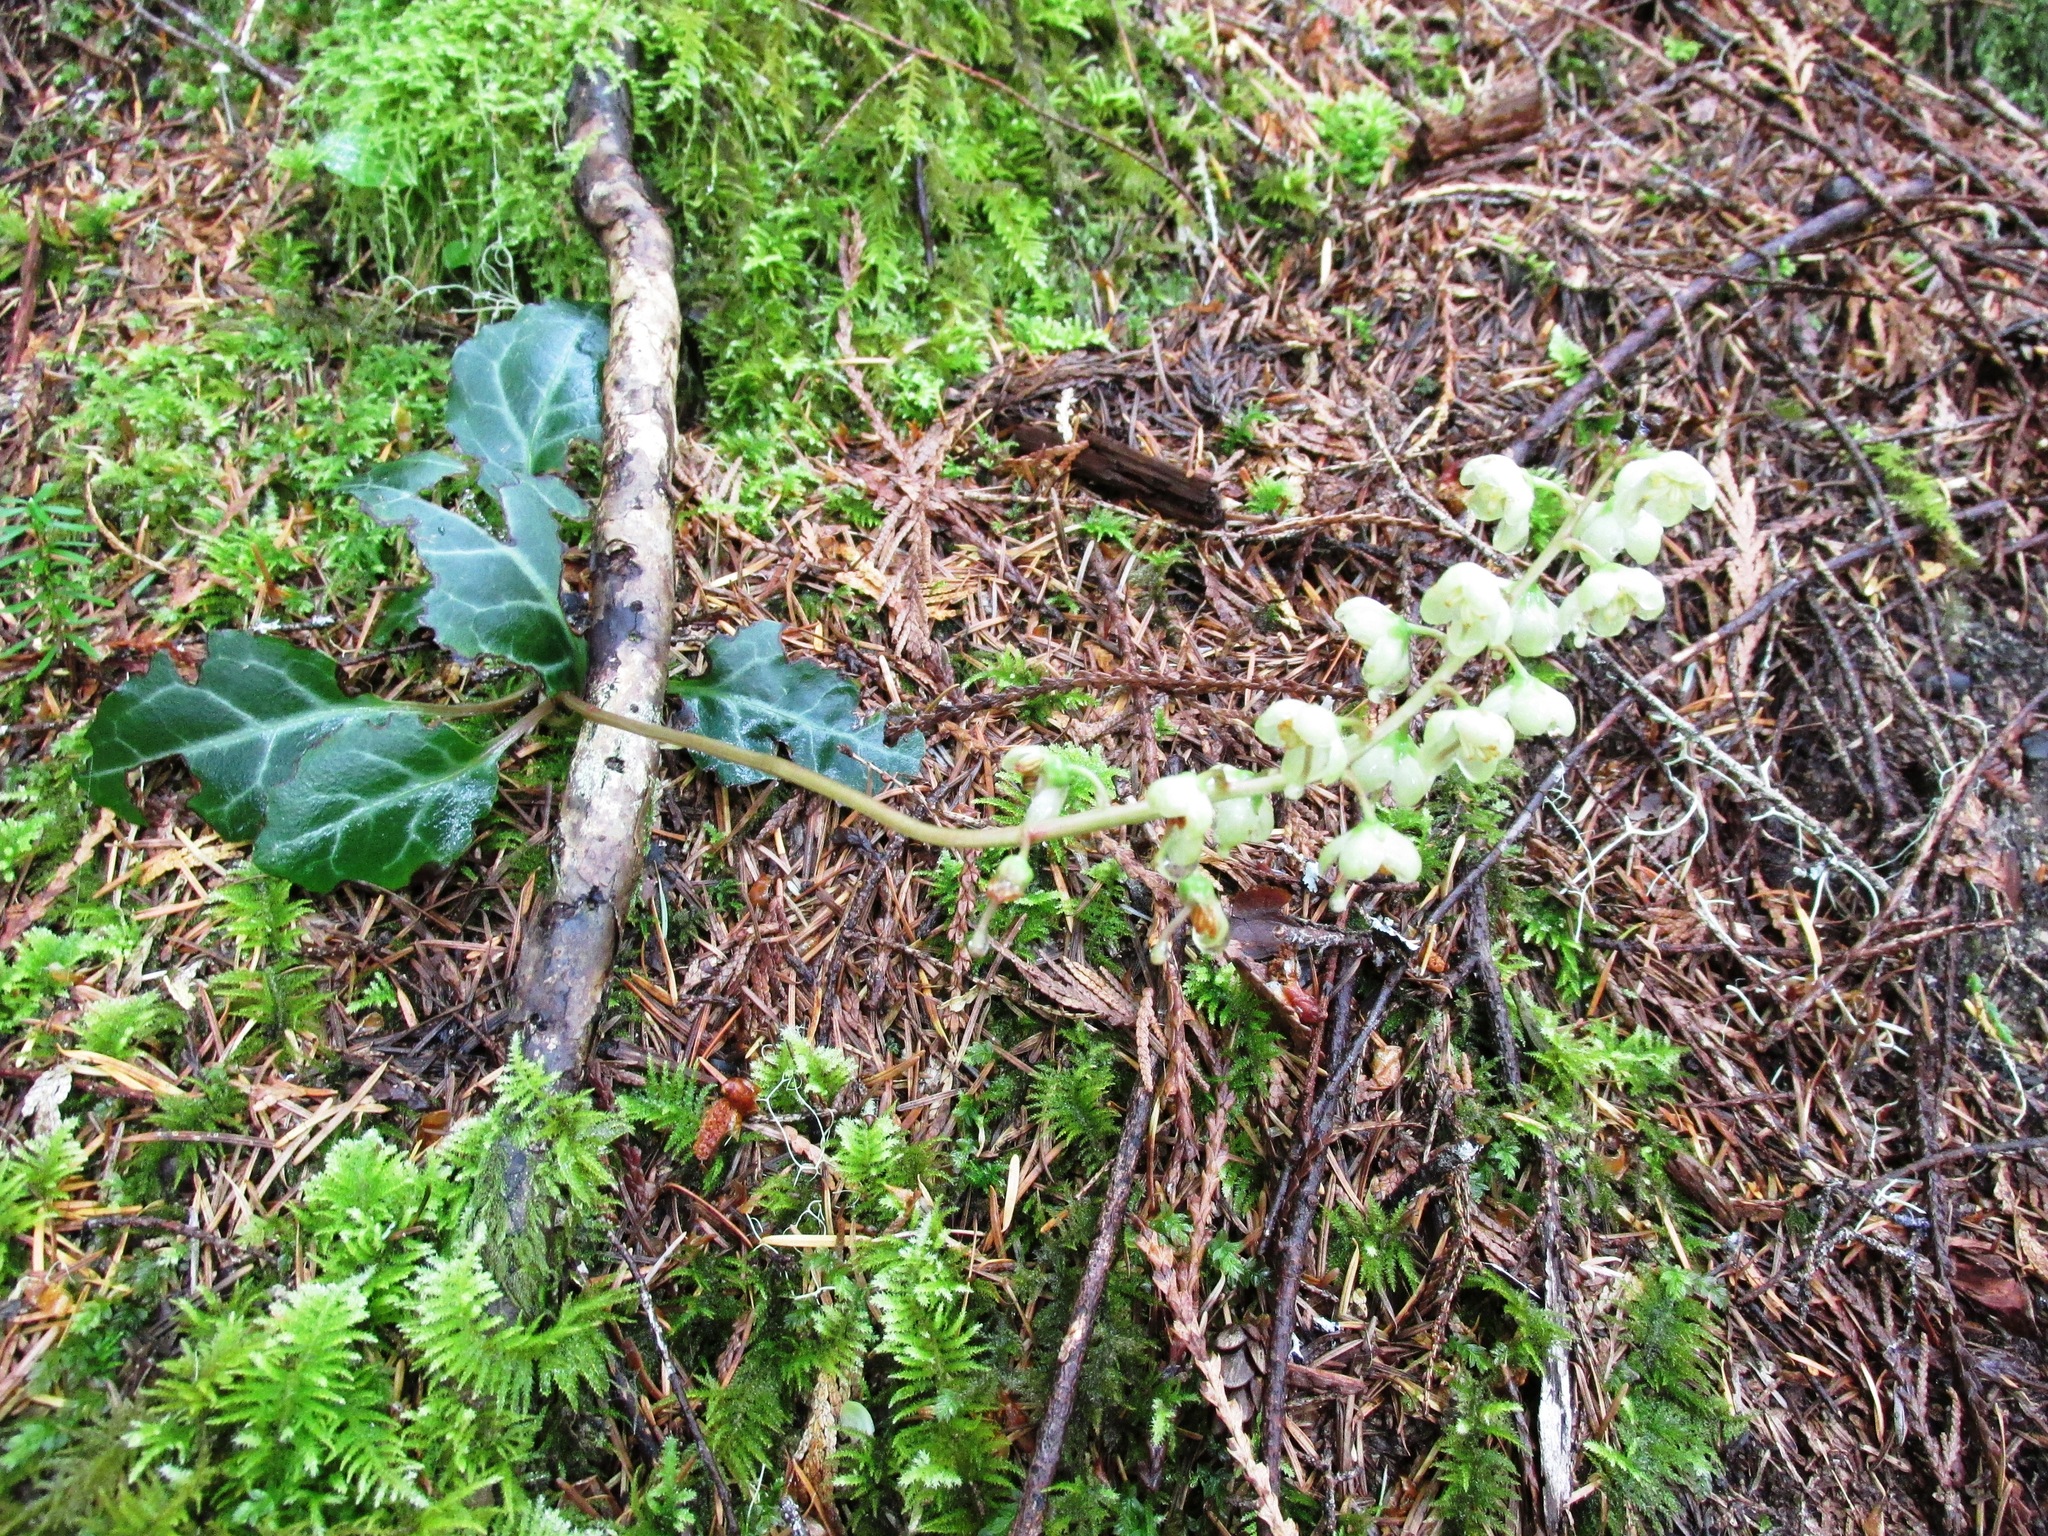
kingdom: Plantae
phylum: Tracheophyta
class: Magnoliopsida
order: Ericales
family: Ericaceae
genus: Pyrola
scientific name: Pyrola picta
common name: White-vein wintergreen
